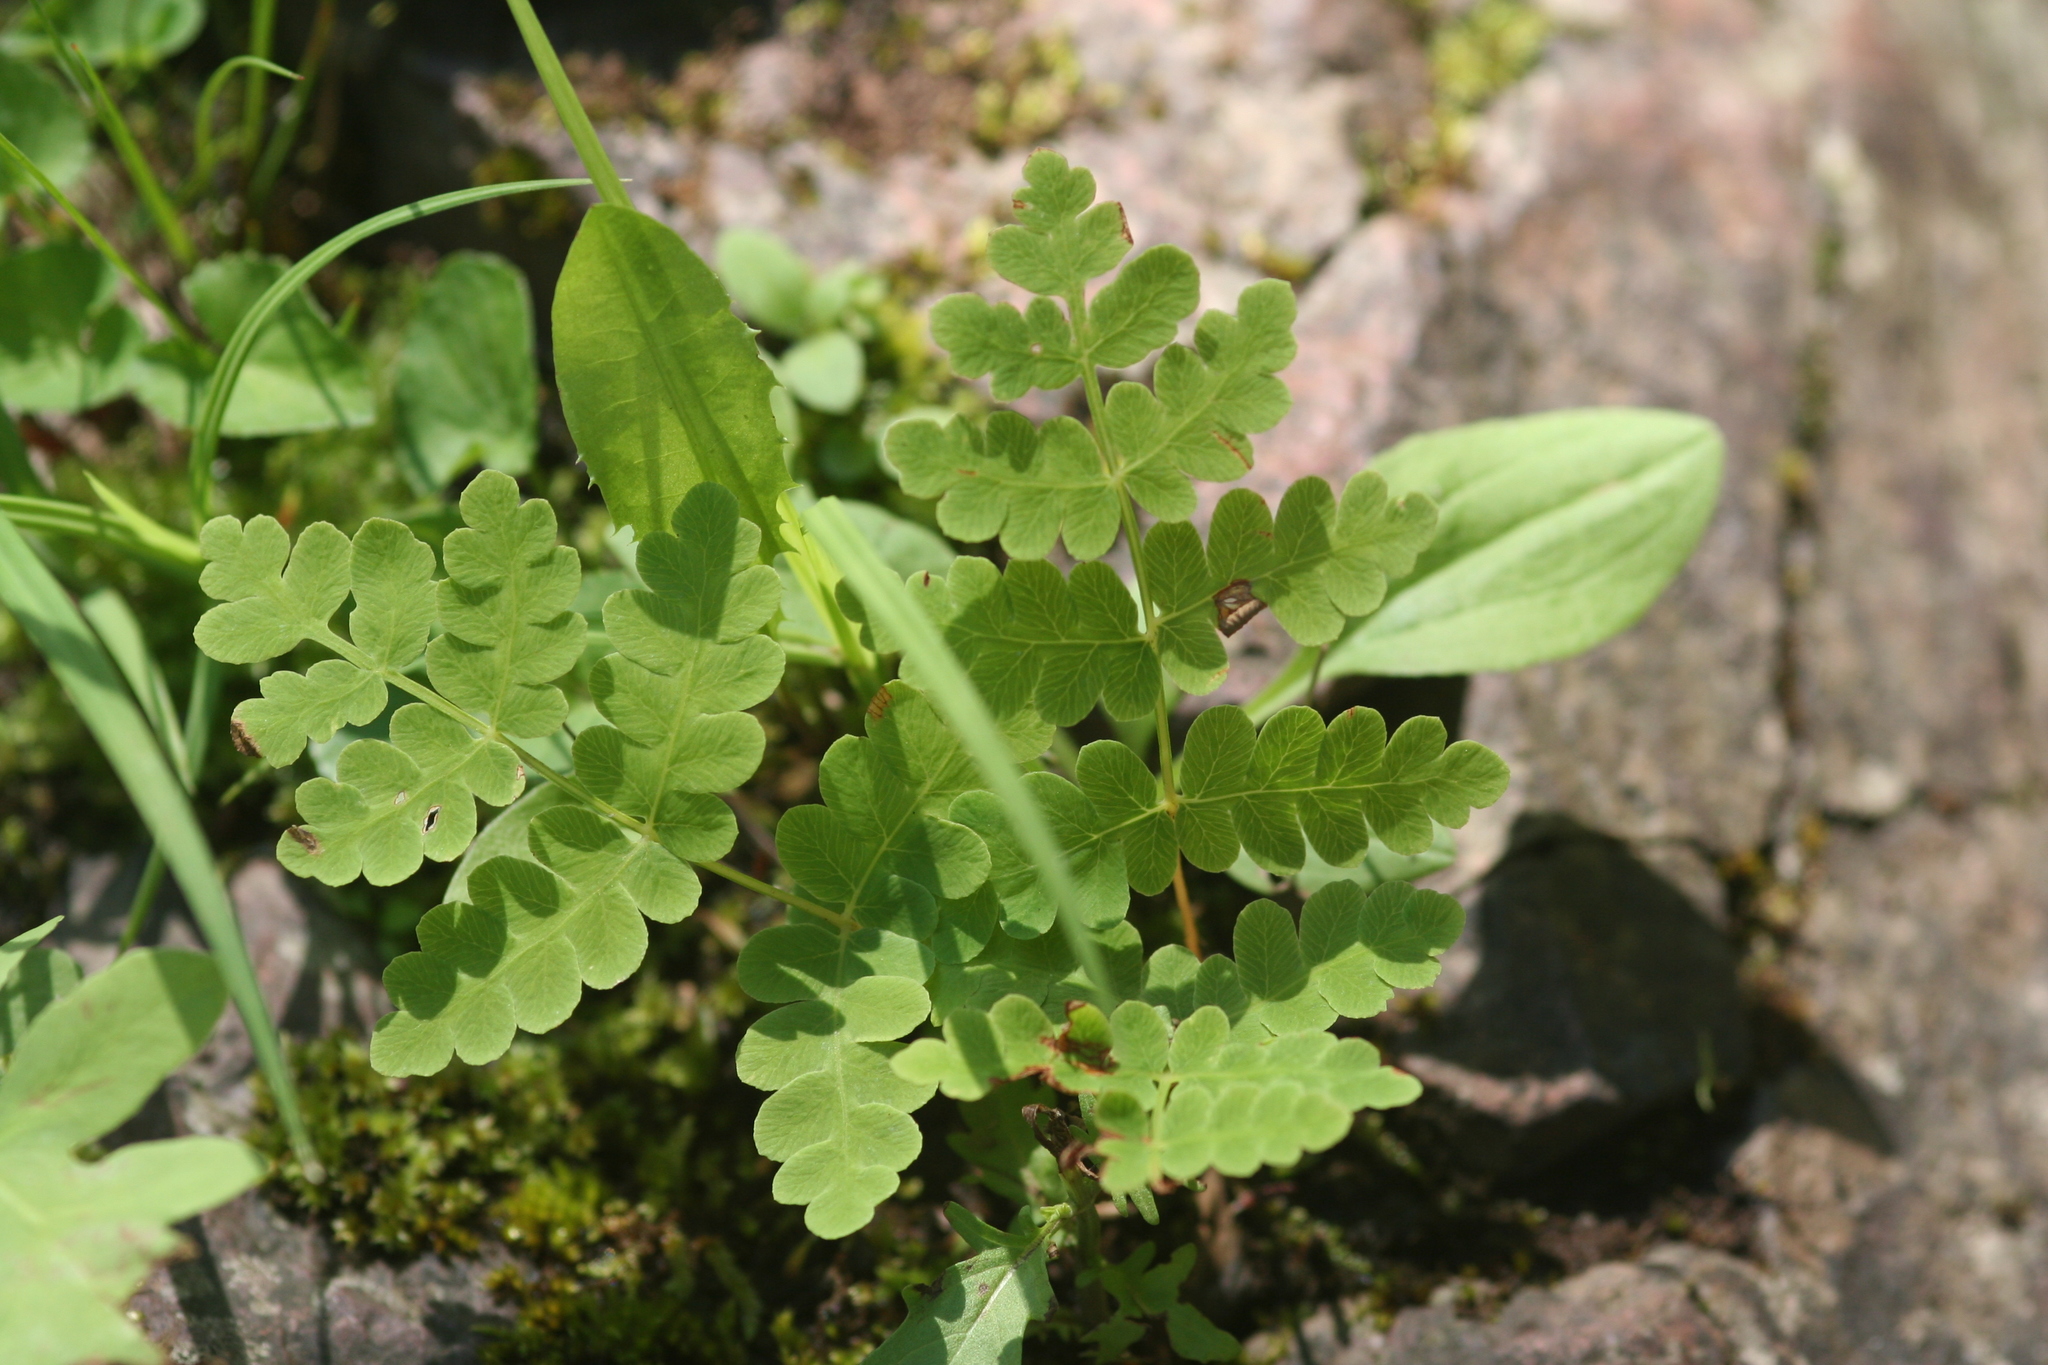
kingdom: Plantae
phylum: Tracheophyta
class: Polypodiopsida
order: Osmundales
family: Osmundaceae
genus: Claytosmunda
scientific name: Claytosmunda claytoniana
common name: Clayton's fern
